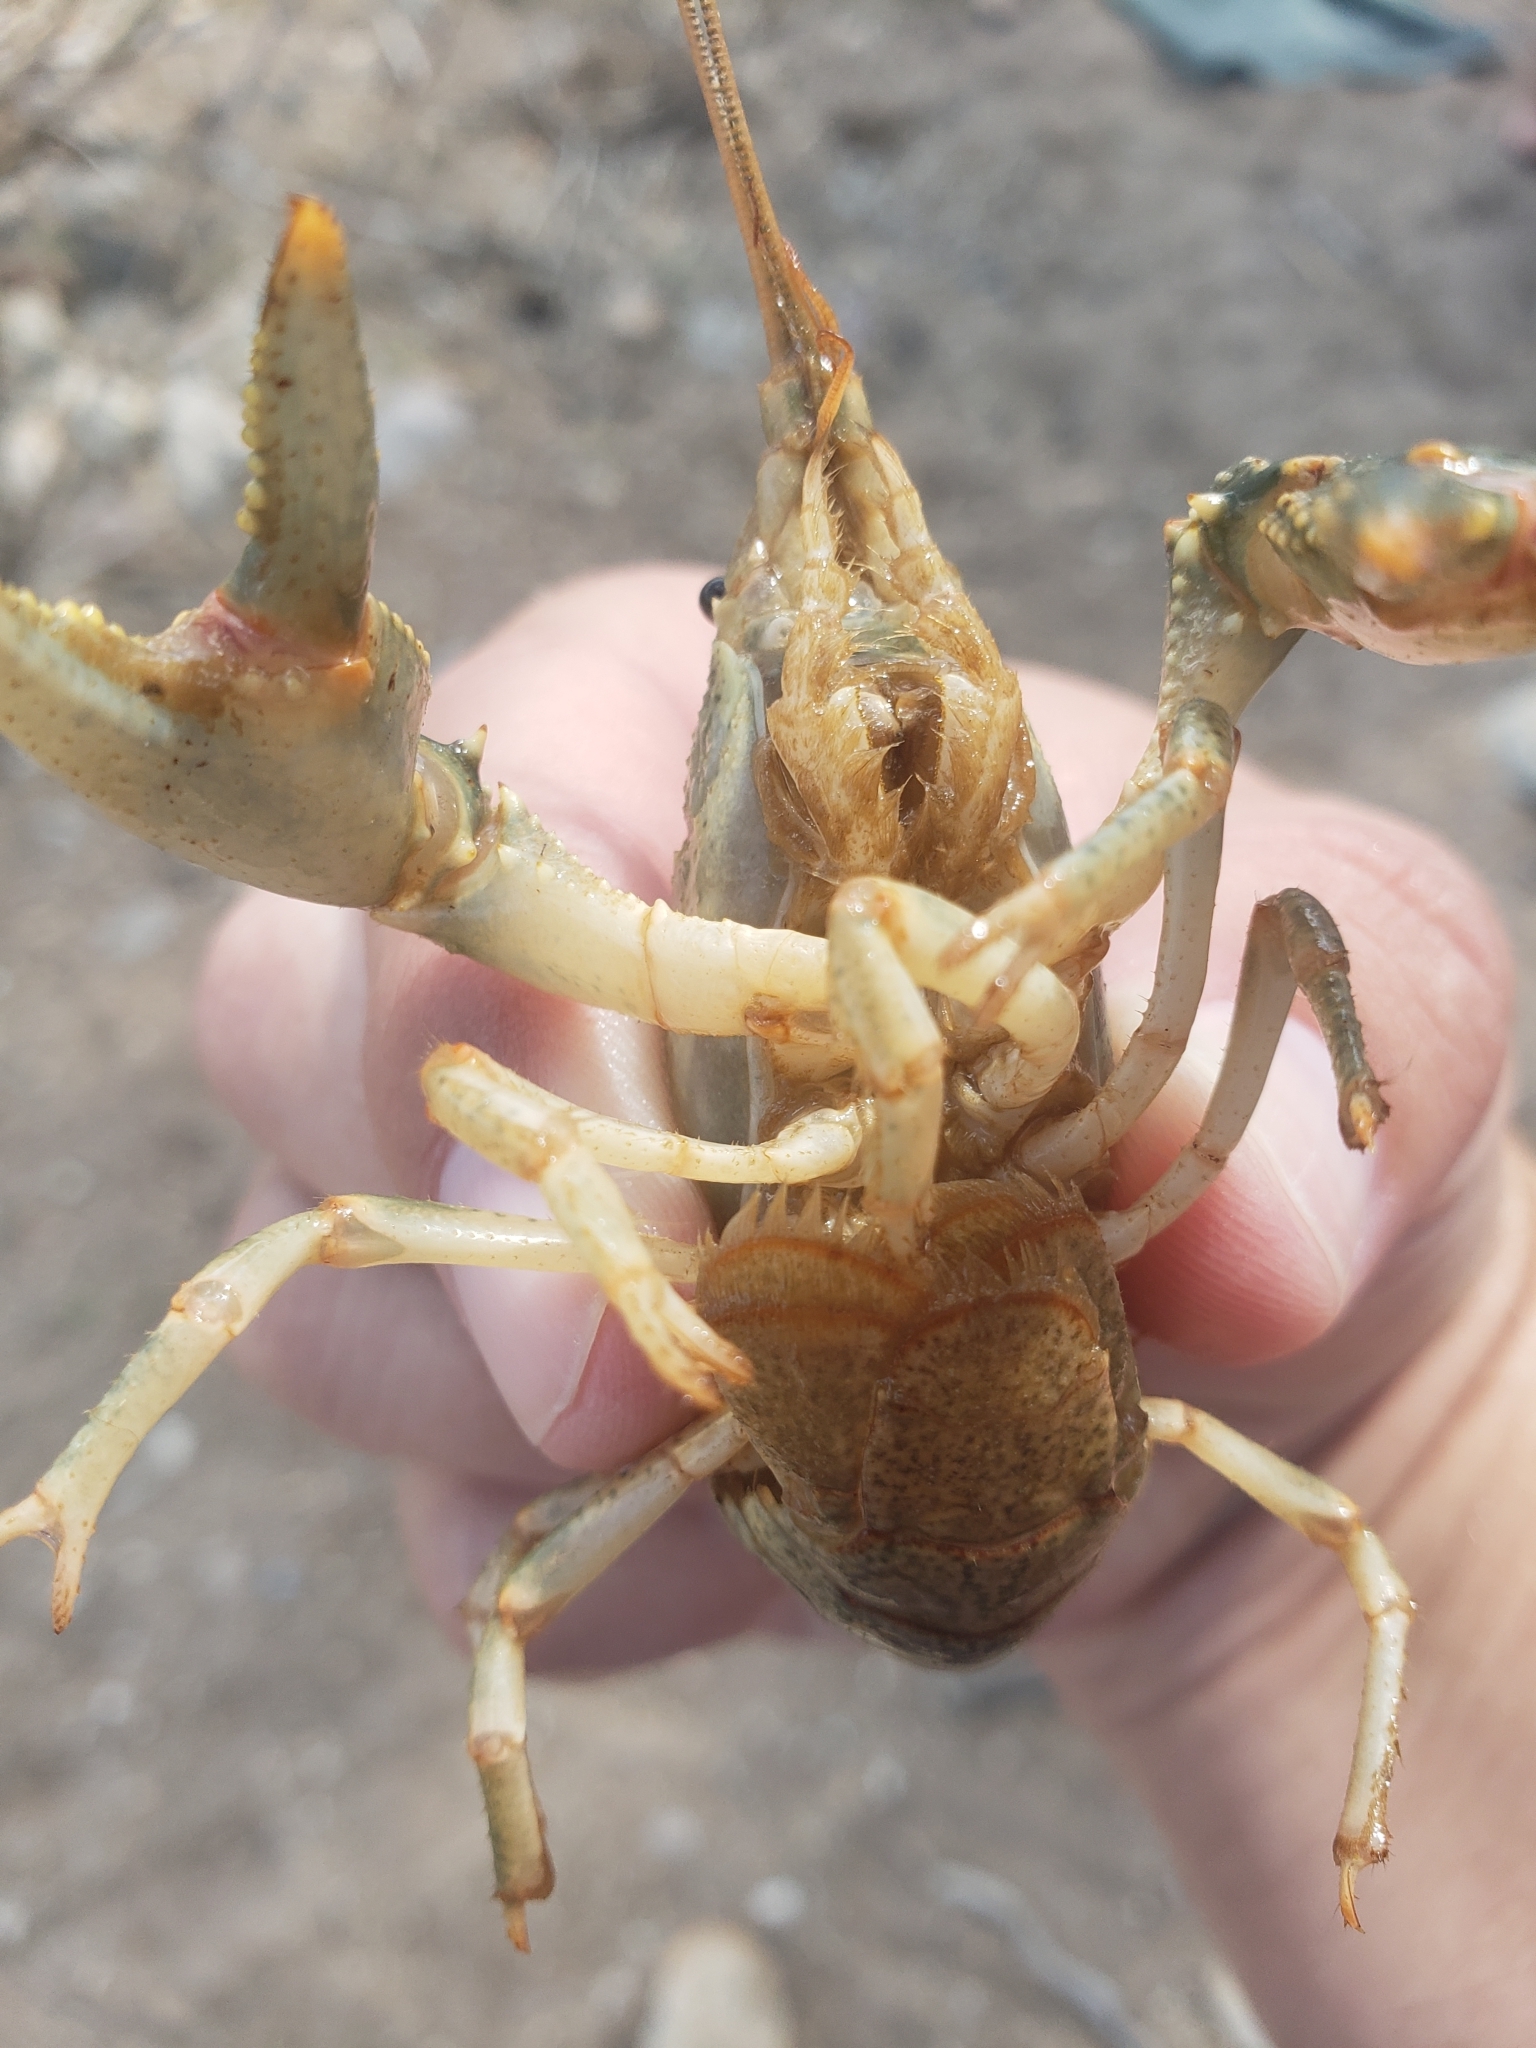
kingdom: Animalia
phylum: Arthropoda
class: Malacostraca
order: Decapoda
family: Cambaridae
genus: Faxonius
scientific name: Faxonius virilis
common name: Virile crayfish
